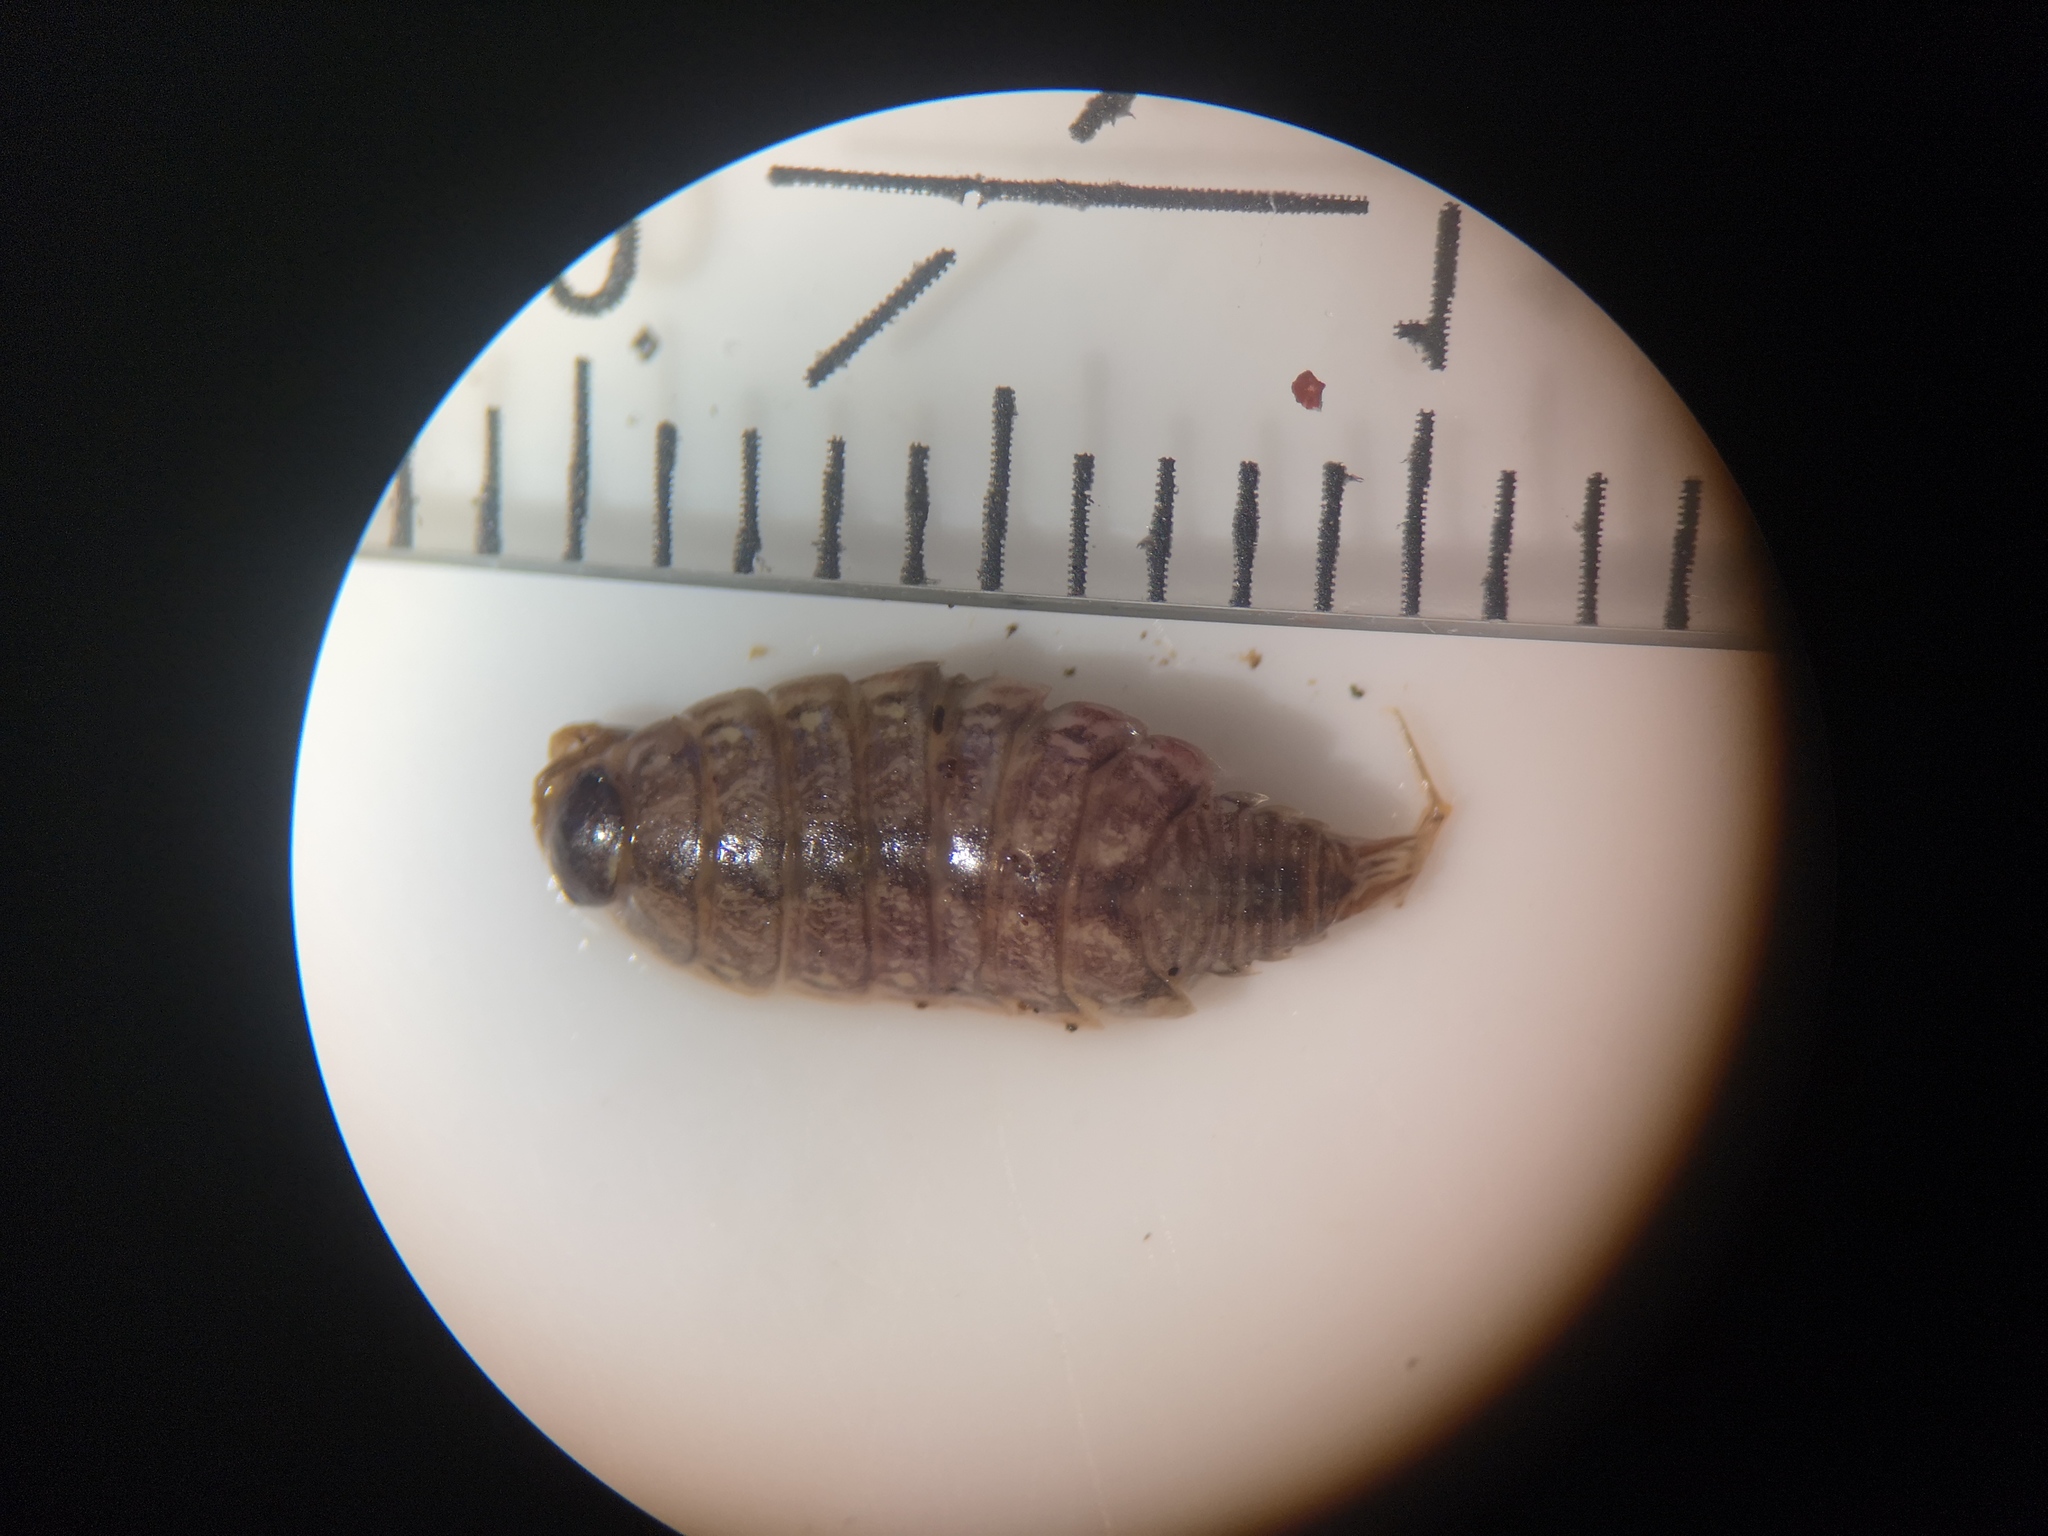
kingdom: Animalia
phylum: Arthropoda
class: Malacostraca
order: Isopoda
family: Philosciidae
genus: Philoscia
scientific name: Philoscia muscorum
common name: Common striped woodlouse
